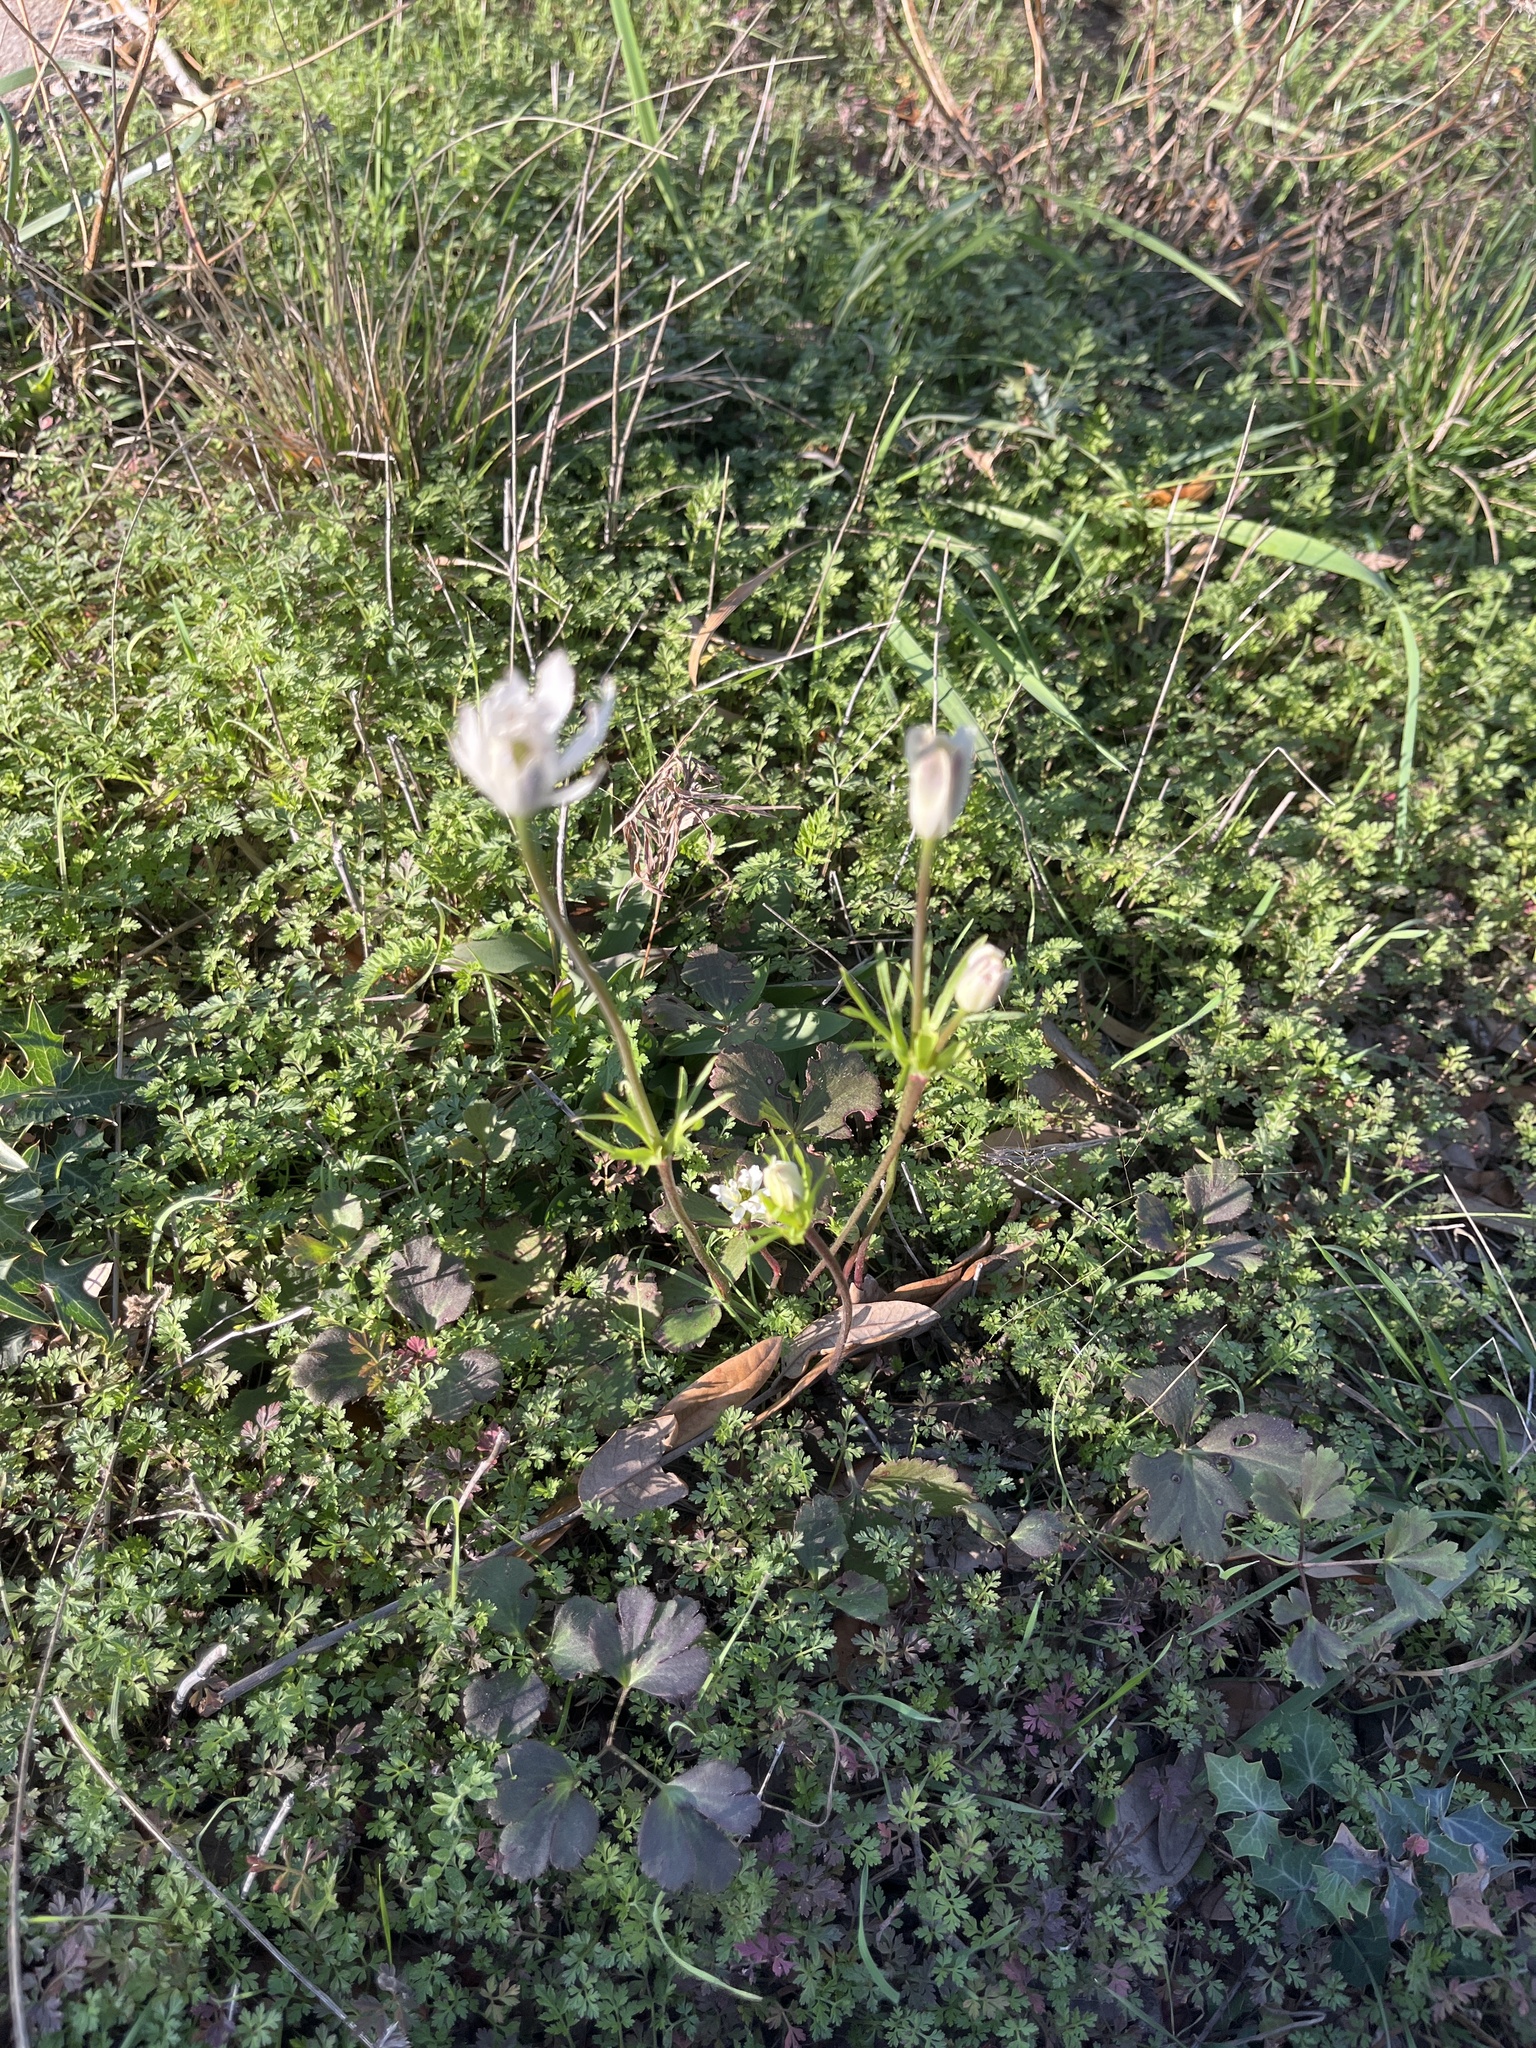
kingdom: Plantae
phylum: Tracheophyta
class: Magnoliopsida
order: Ranunculales
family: Ranunculaceae
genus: Anemone
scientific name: Anemone berlandieri
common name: Ten-petal anemone
